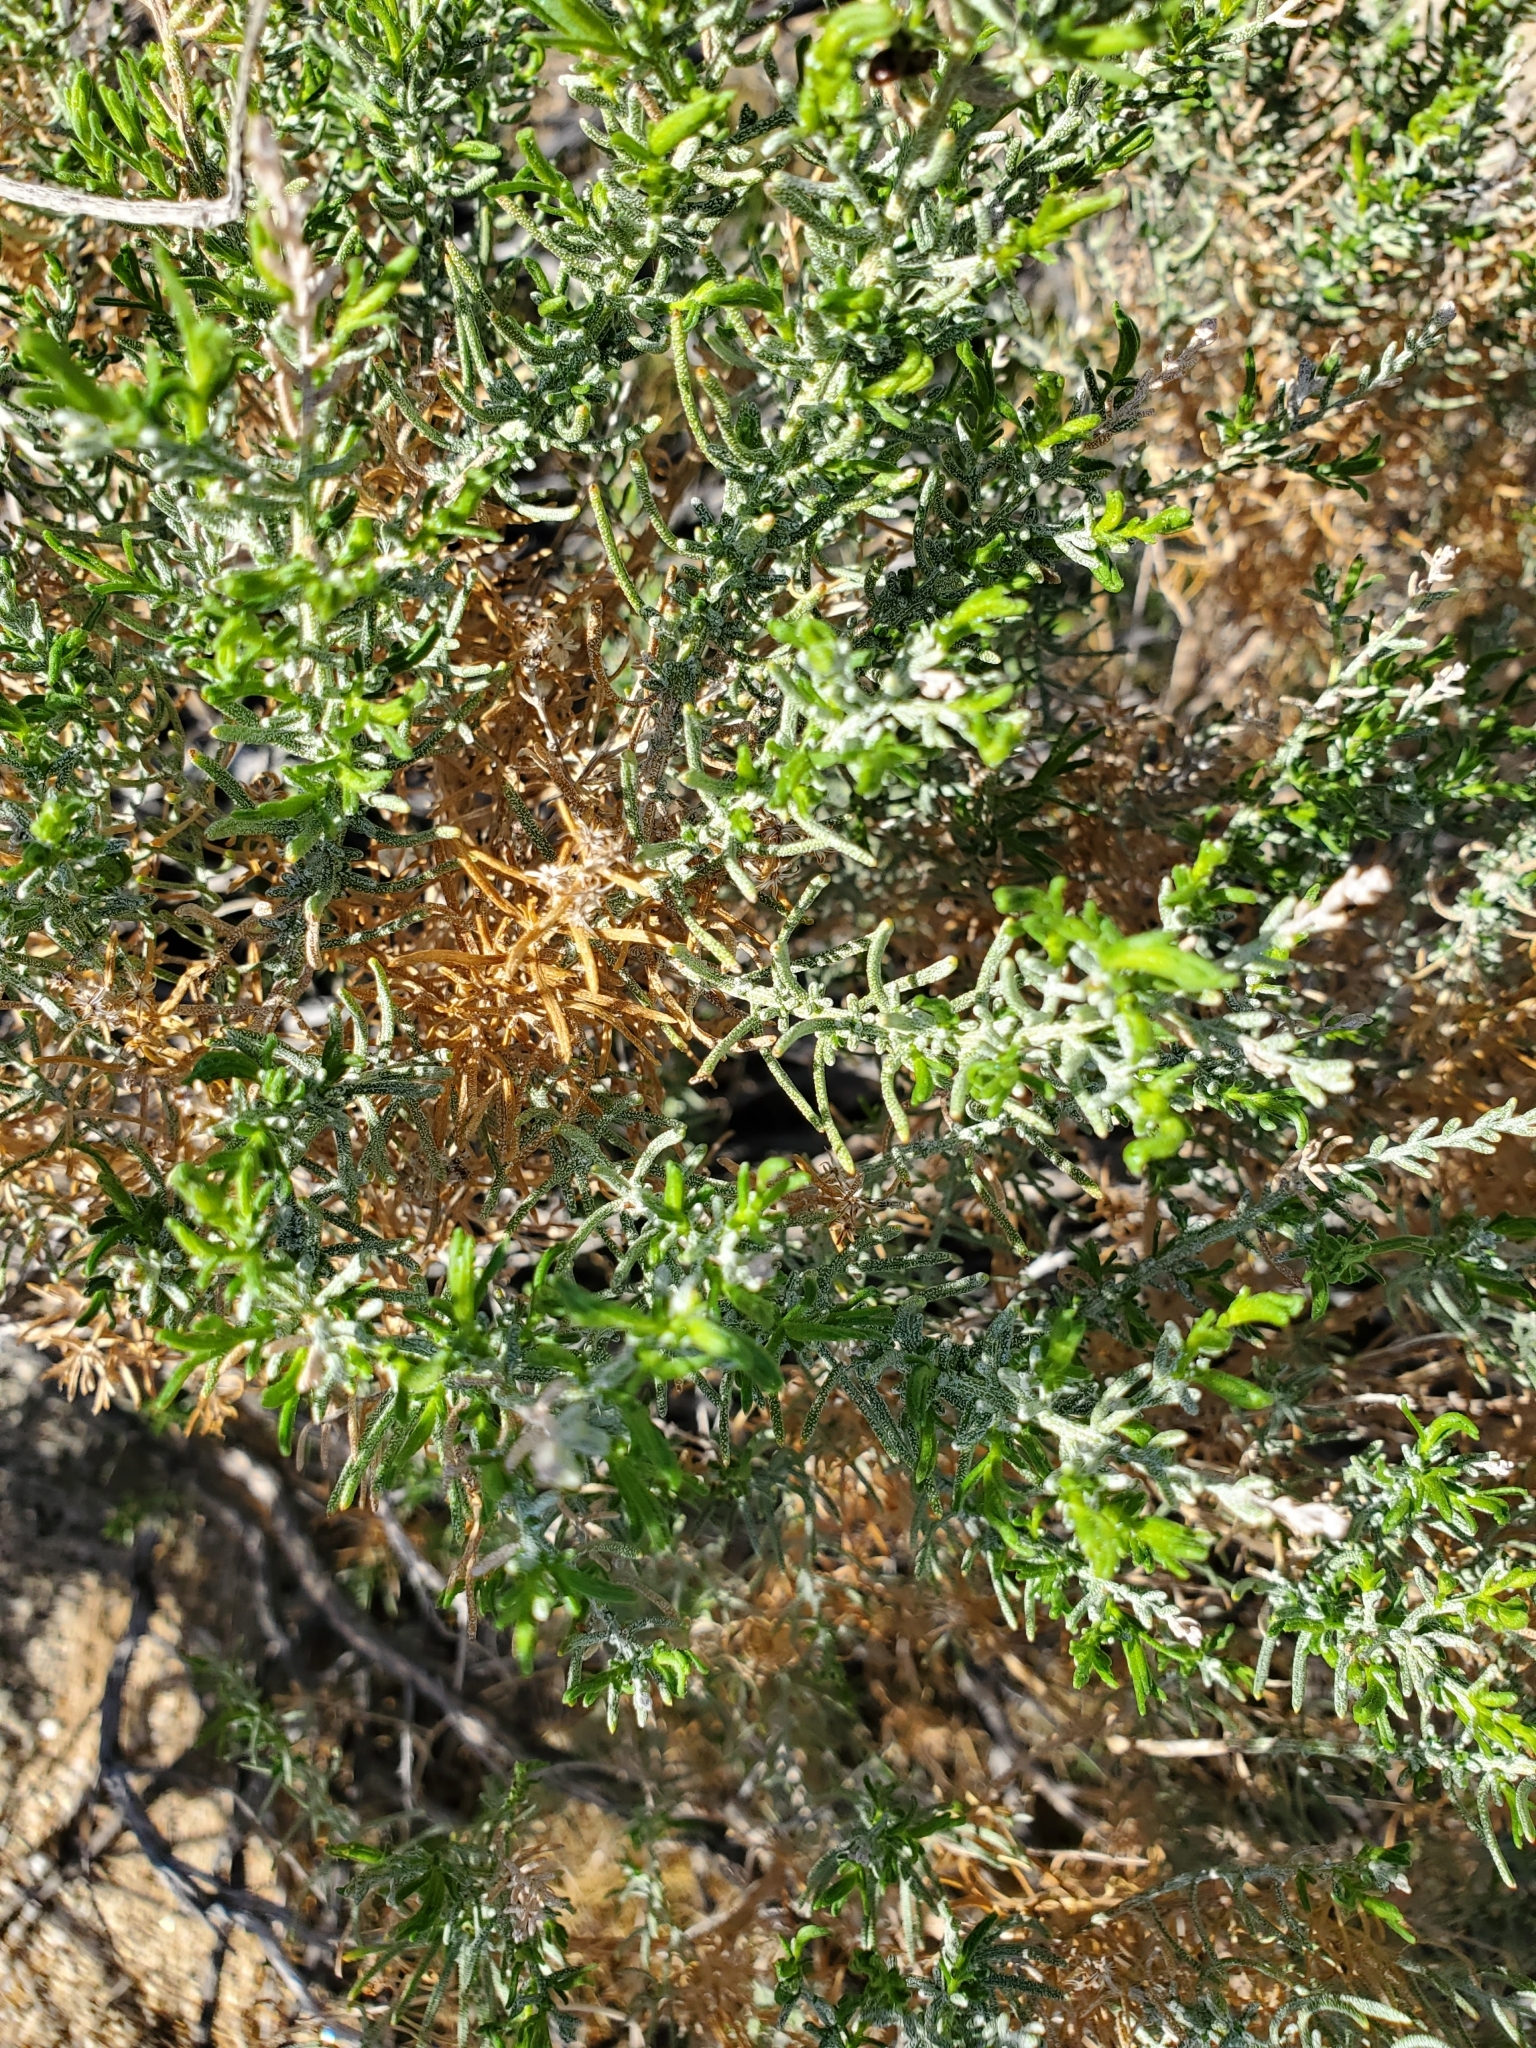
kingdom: Plantae
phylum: Tracheophyta
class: Magnoliopsida
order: Asterales
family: Asteraceae
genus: Ericameria
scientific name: Ericameria brachylepis
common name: Boundary goldenbush
